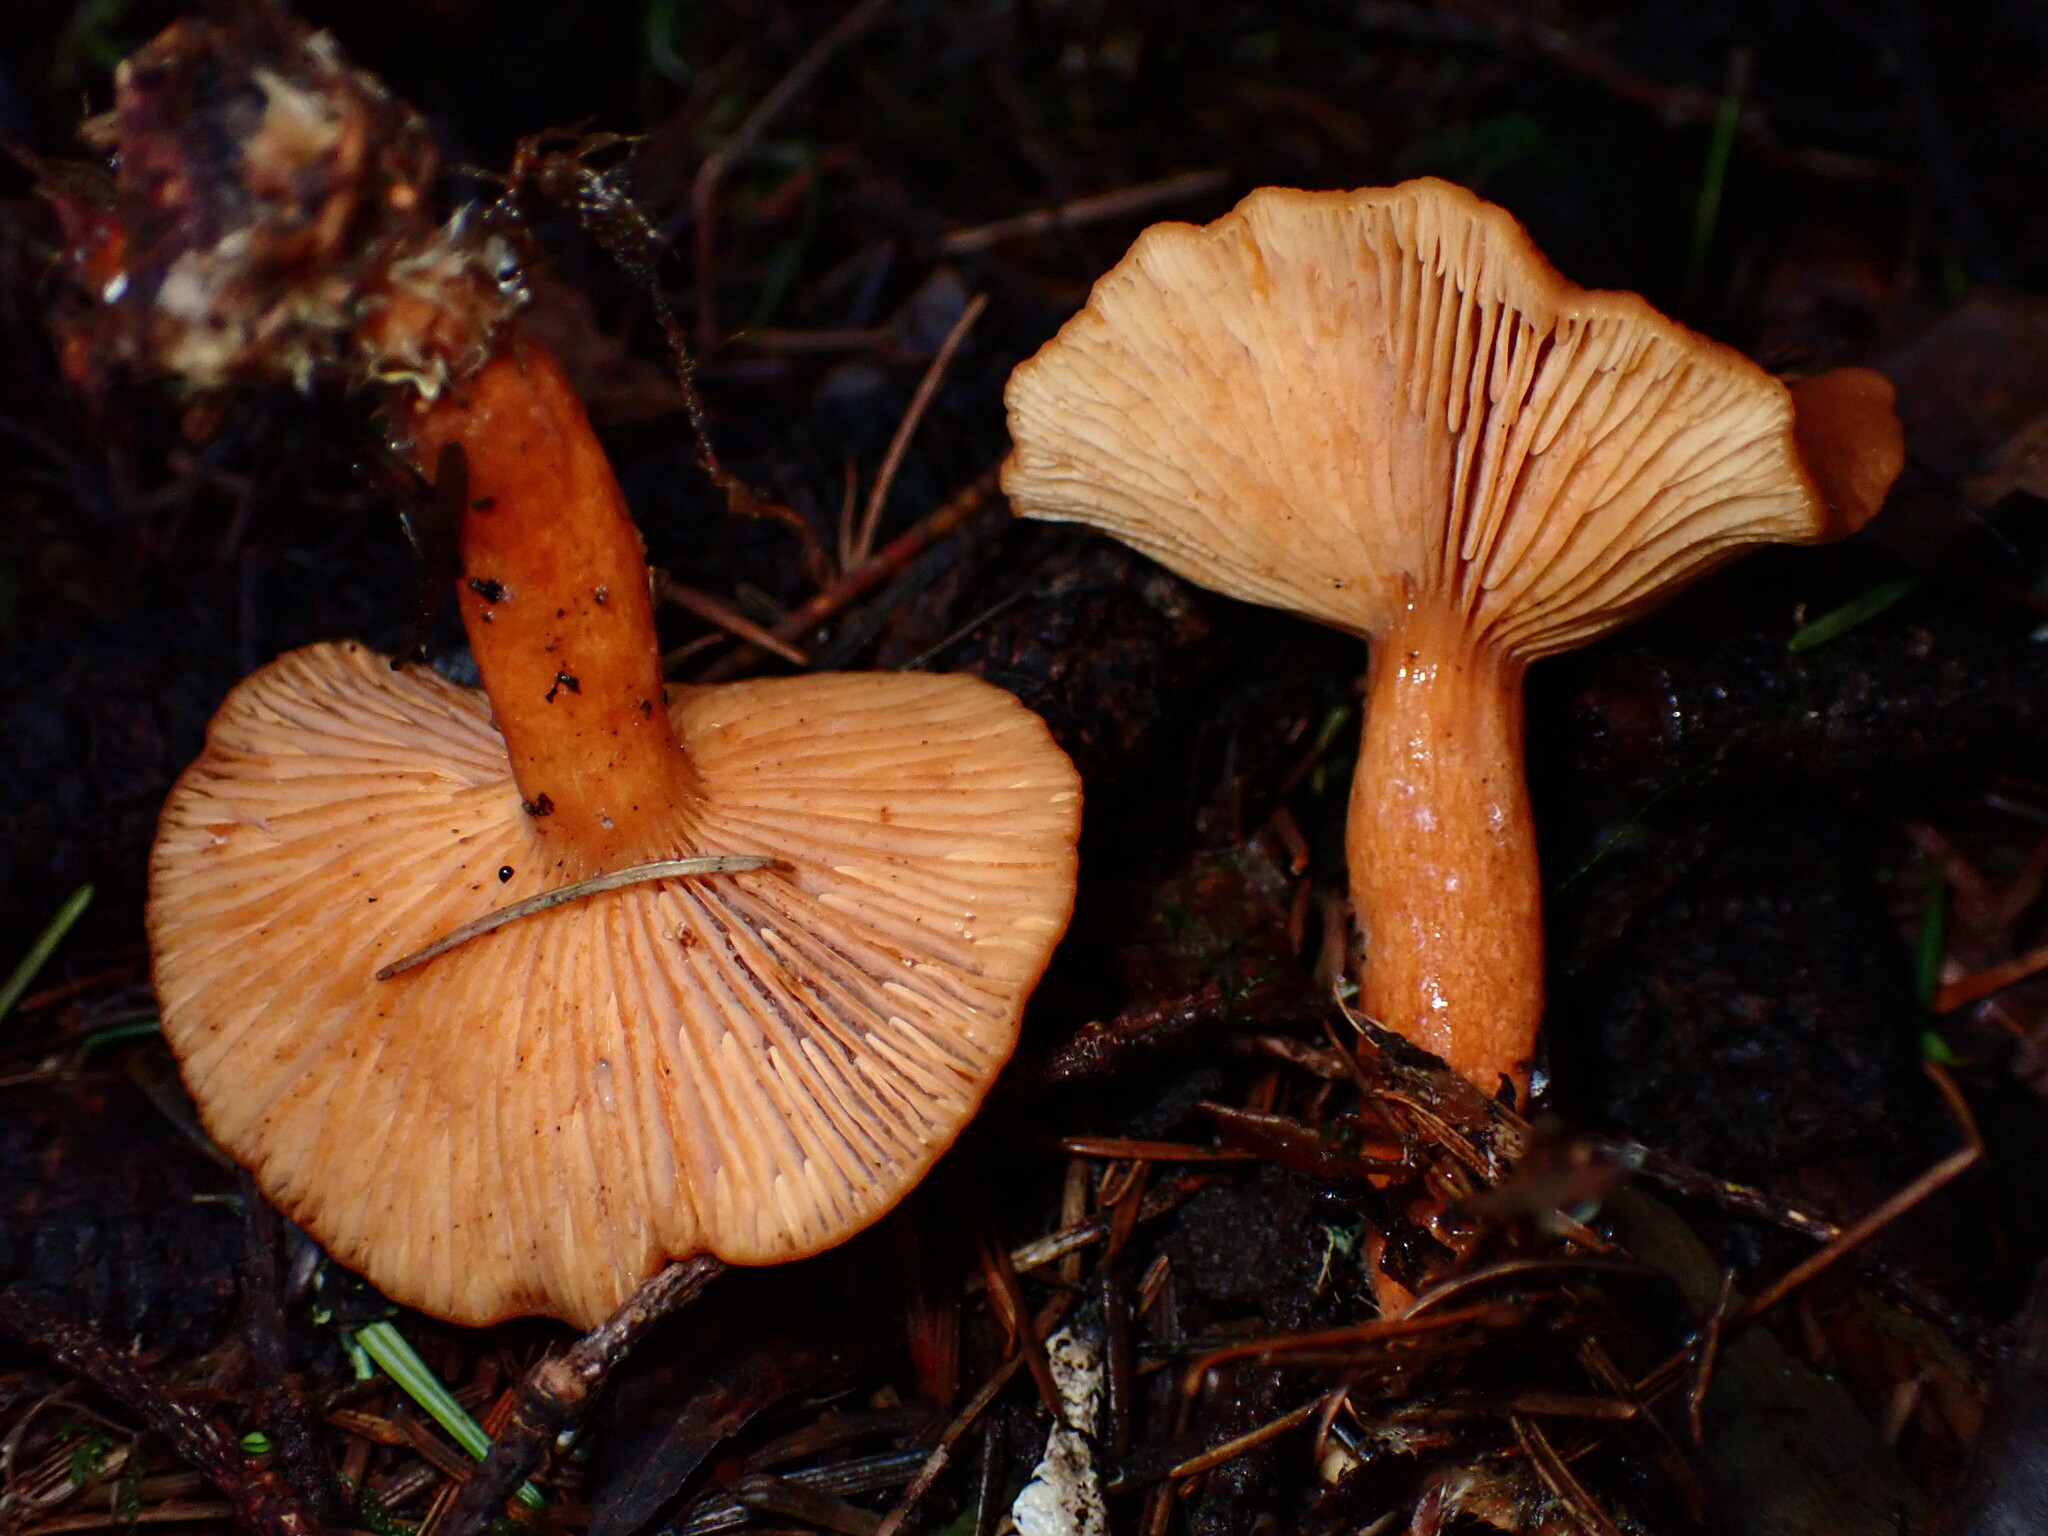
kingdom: Fungi
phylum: Basidiomycota
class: Agaricomycetes
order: Russulales
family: Russulaceae
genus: Lactarius
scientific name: Lactarius rubidus
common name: Candy cap
